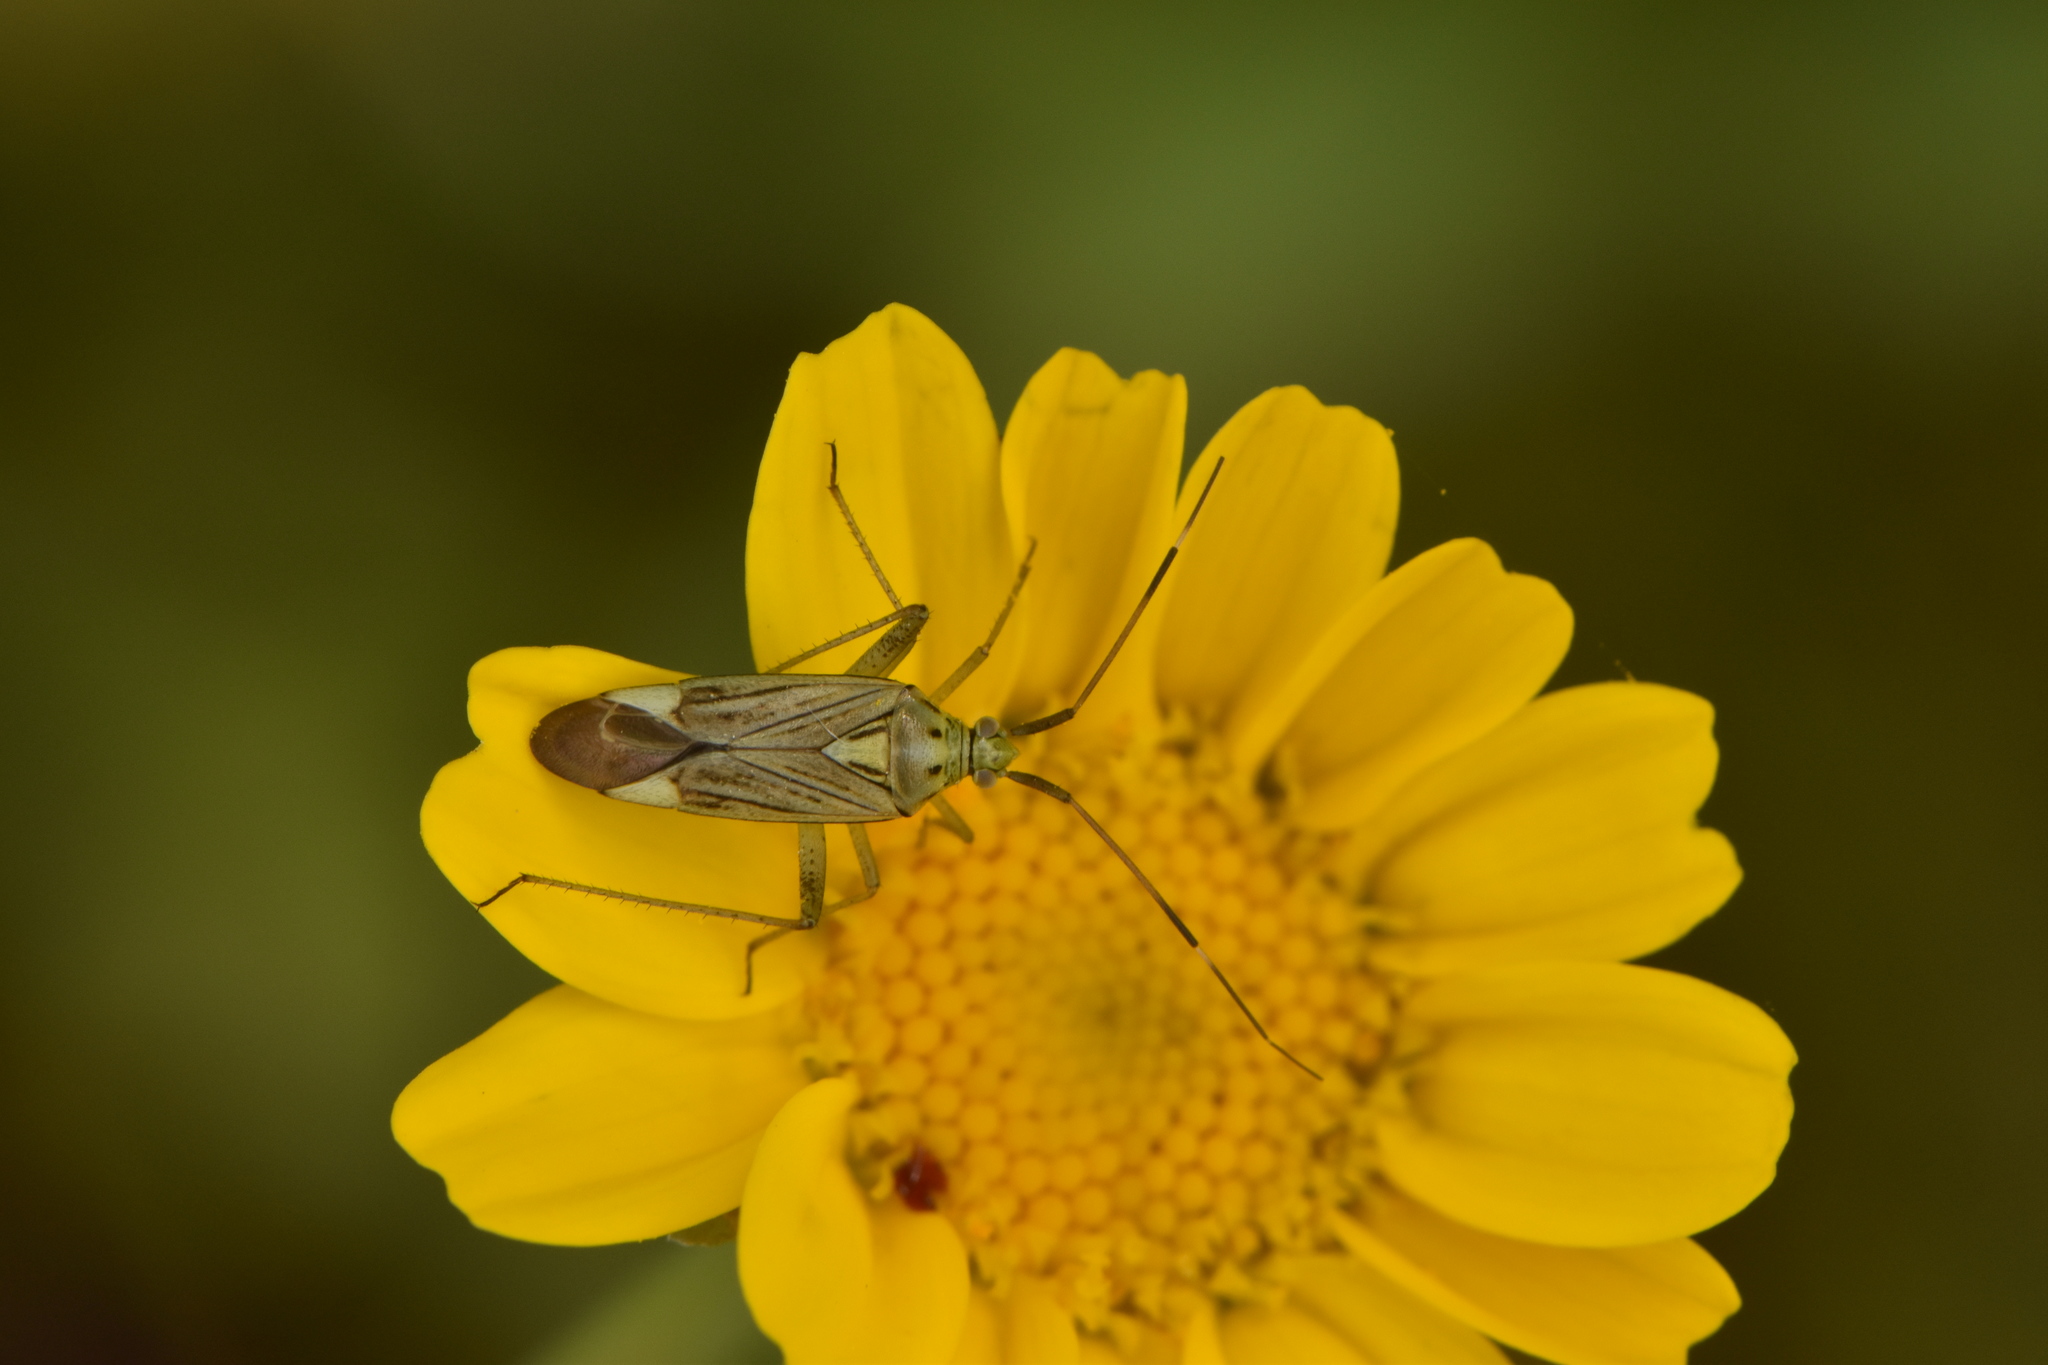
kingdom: Animalia
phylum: Arthropoda
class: Insecta
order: Hemiptera
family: Miridae
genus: Closterotomus
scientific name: Closterotomus trivialis
